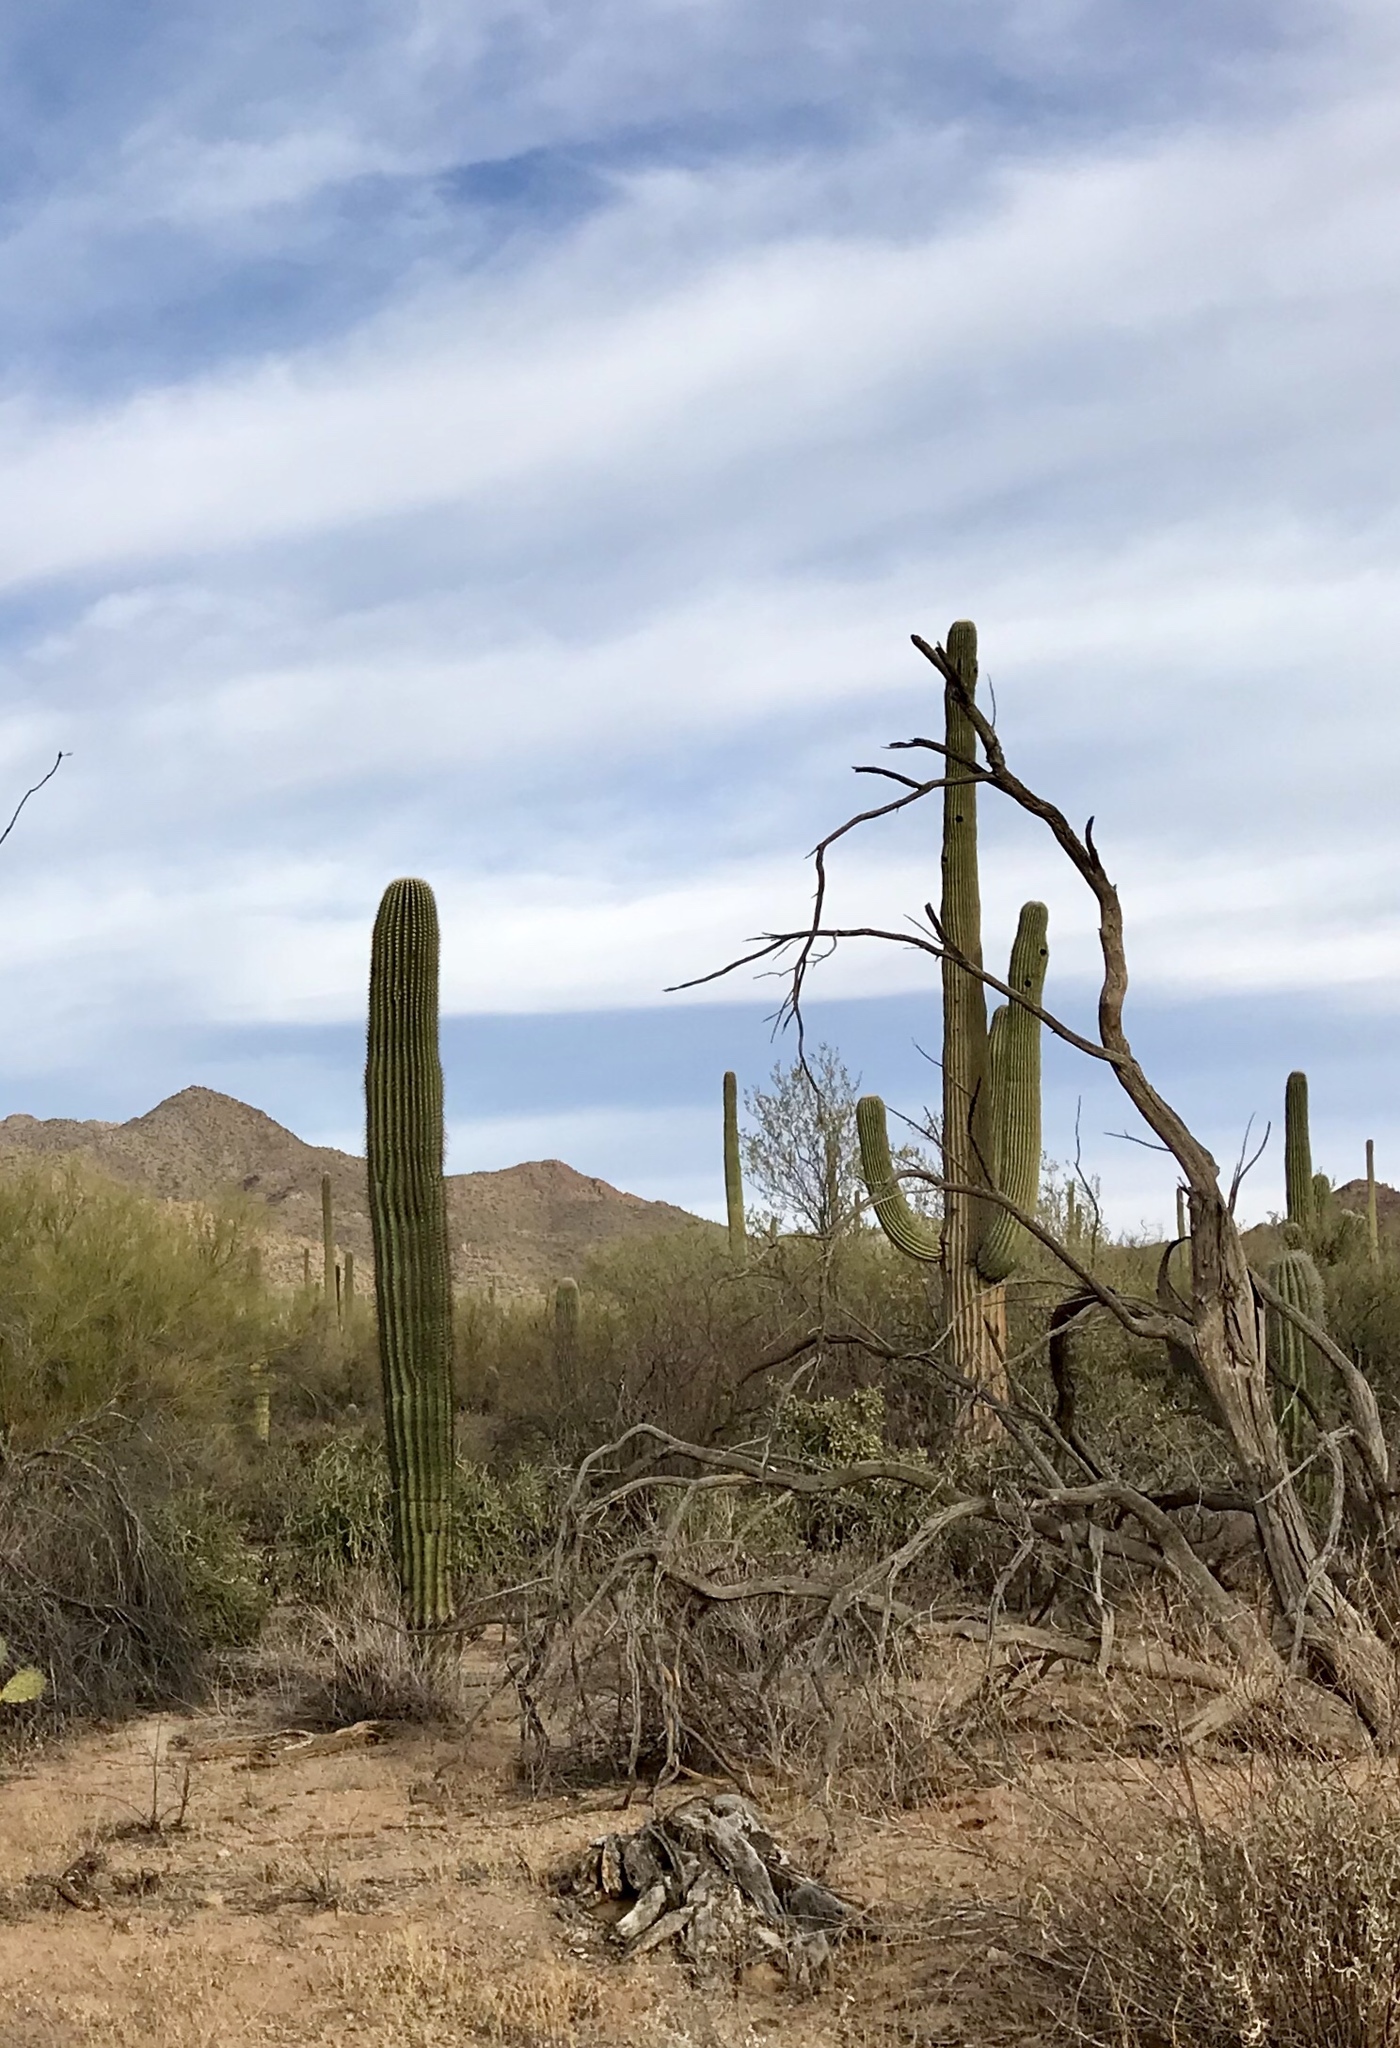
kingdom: Plantae
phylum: Tracheophyta
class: Magnoliopsida
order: Caryophyllales
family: Cactaceae
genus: Carnegiea
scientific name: Carnegiea gigantea
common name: Saguaro
